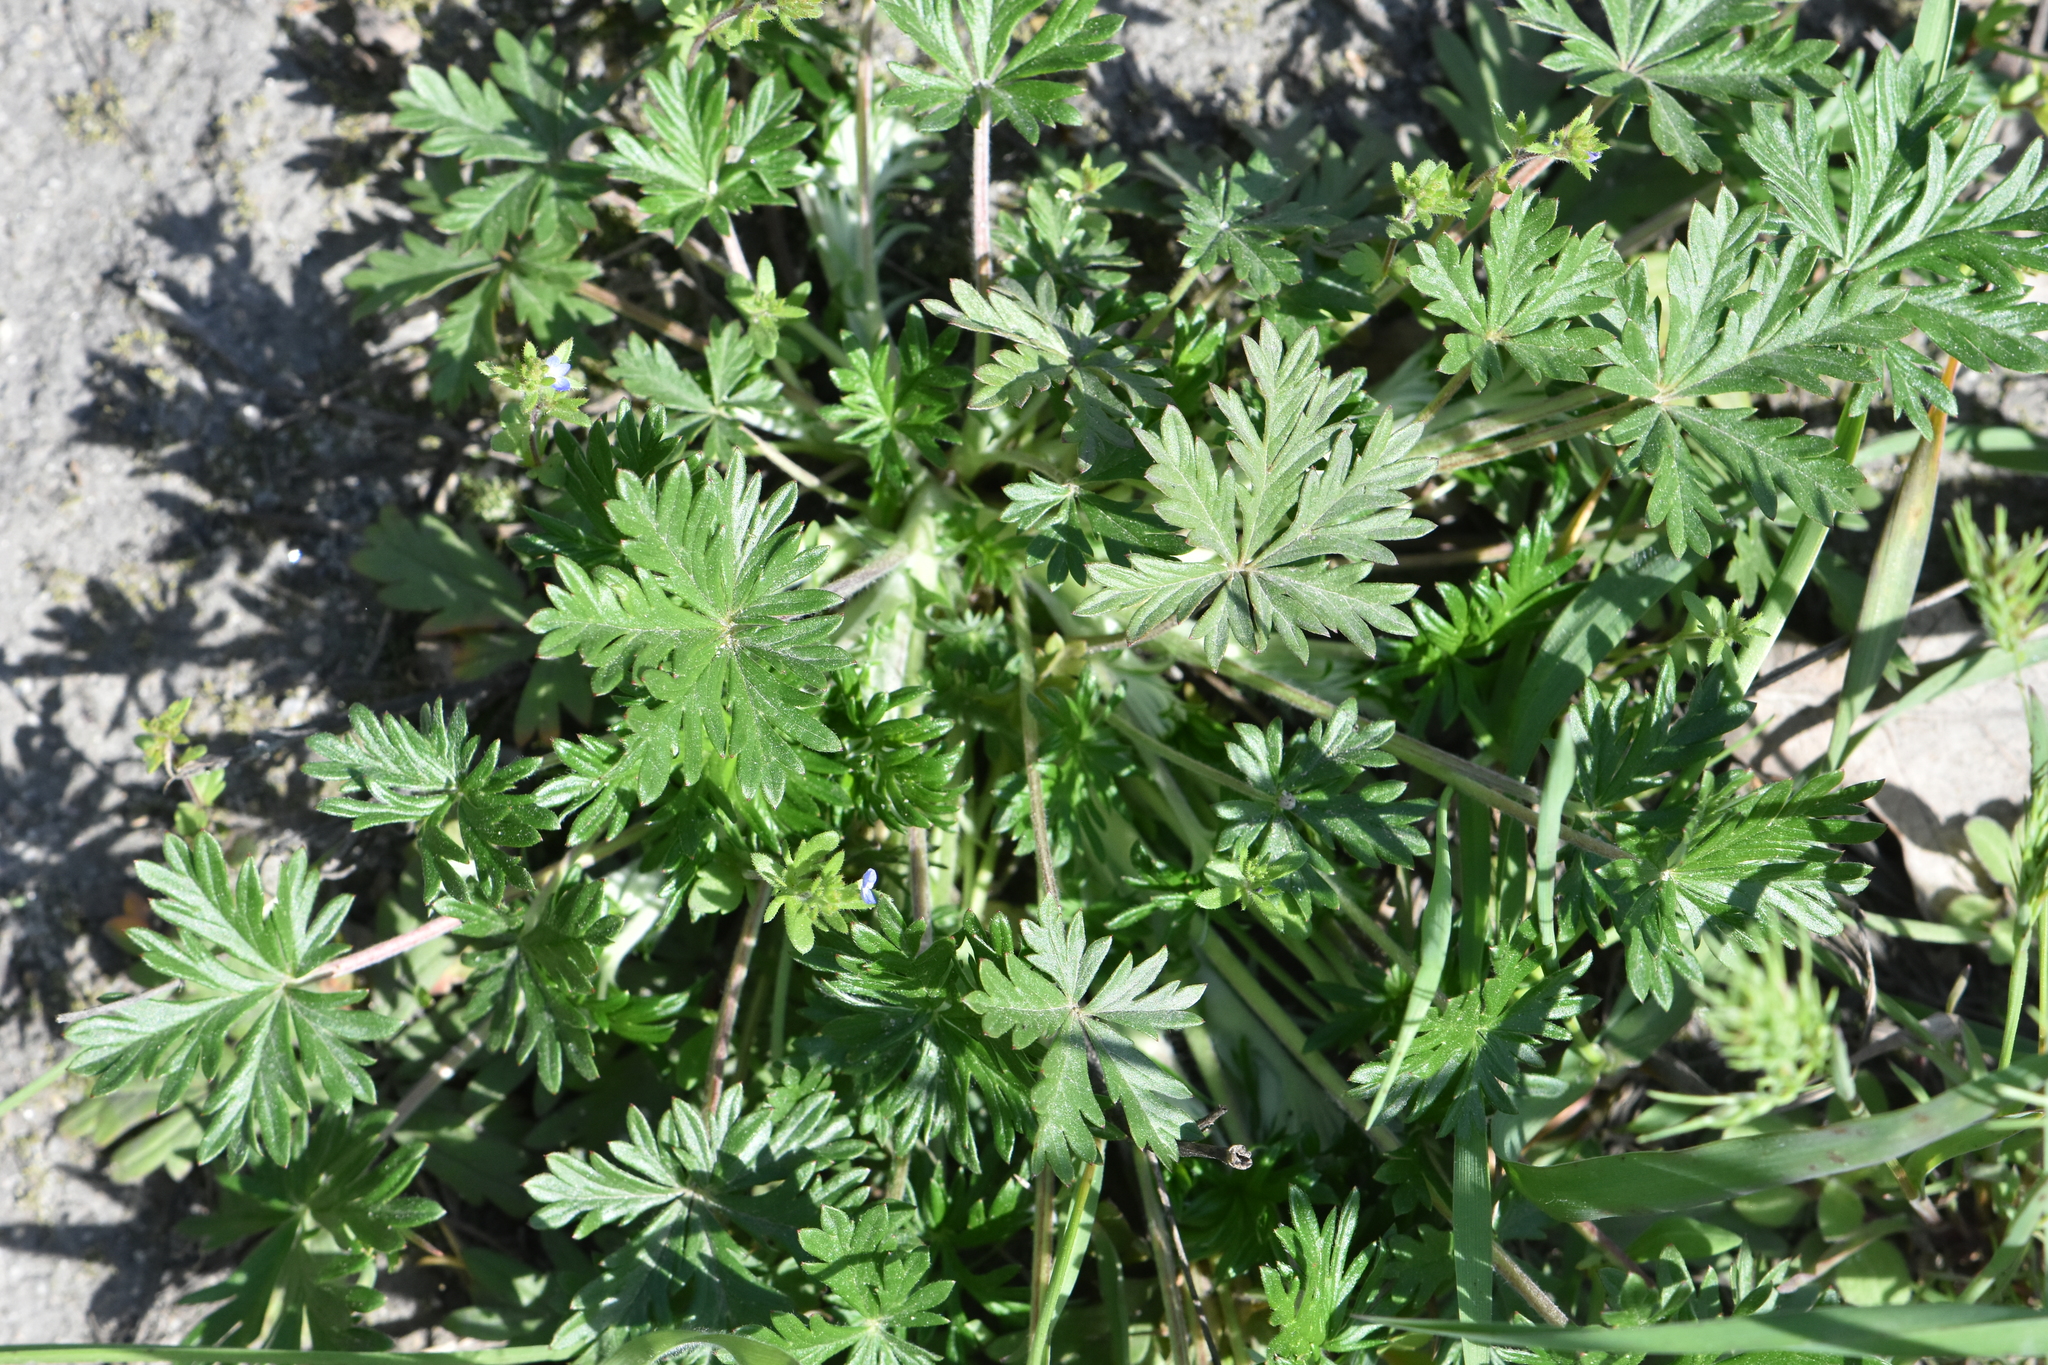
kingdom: Plantae
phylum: Tracheophyta
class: Magnoliopsida
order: Rosales
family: Rosaceae
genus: Potentilla
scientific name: Potentilla argentea
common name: Hoary cinquefoil
